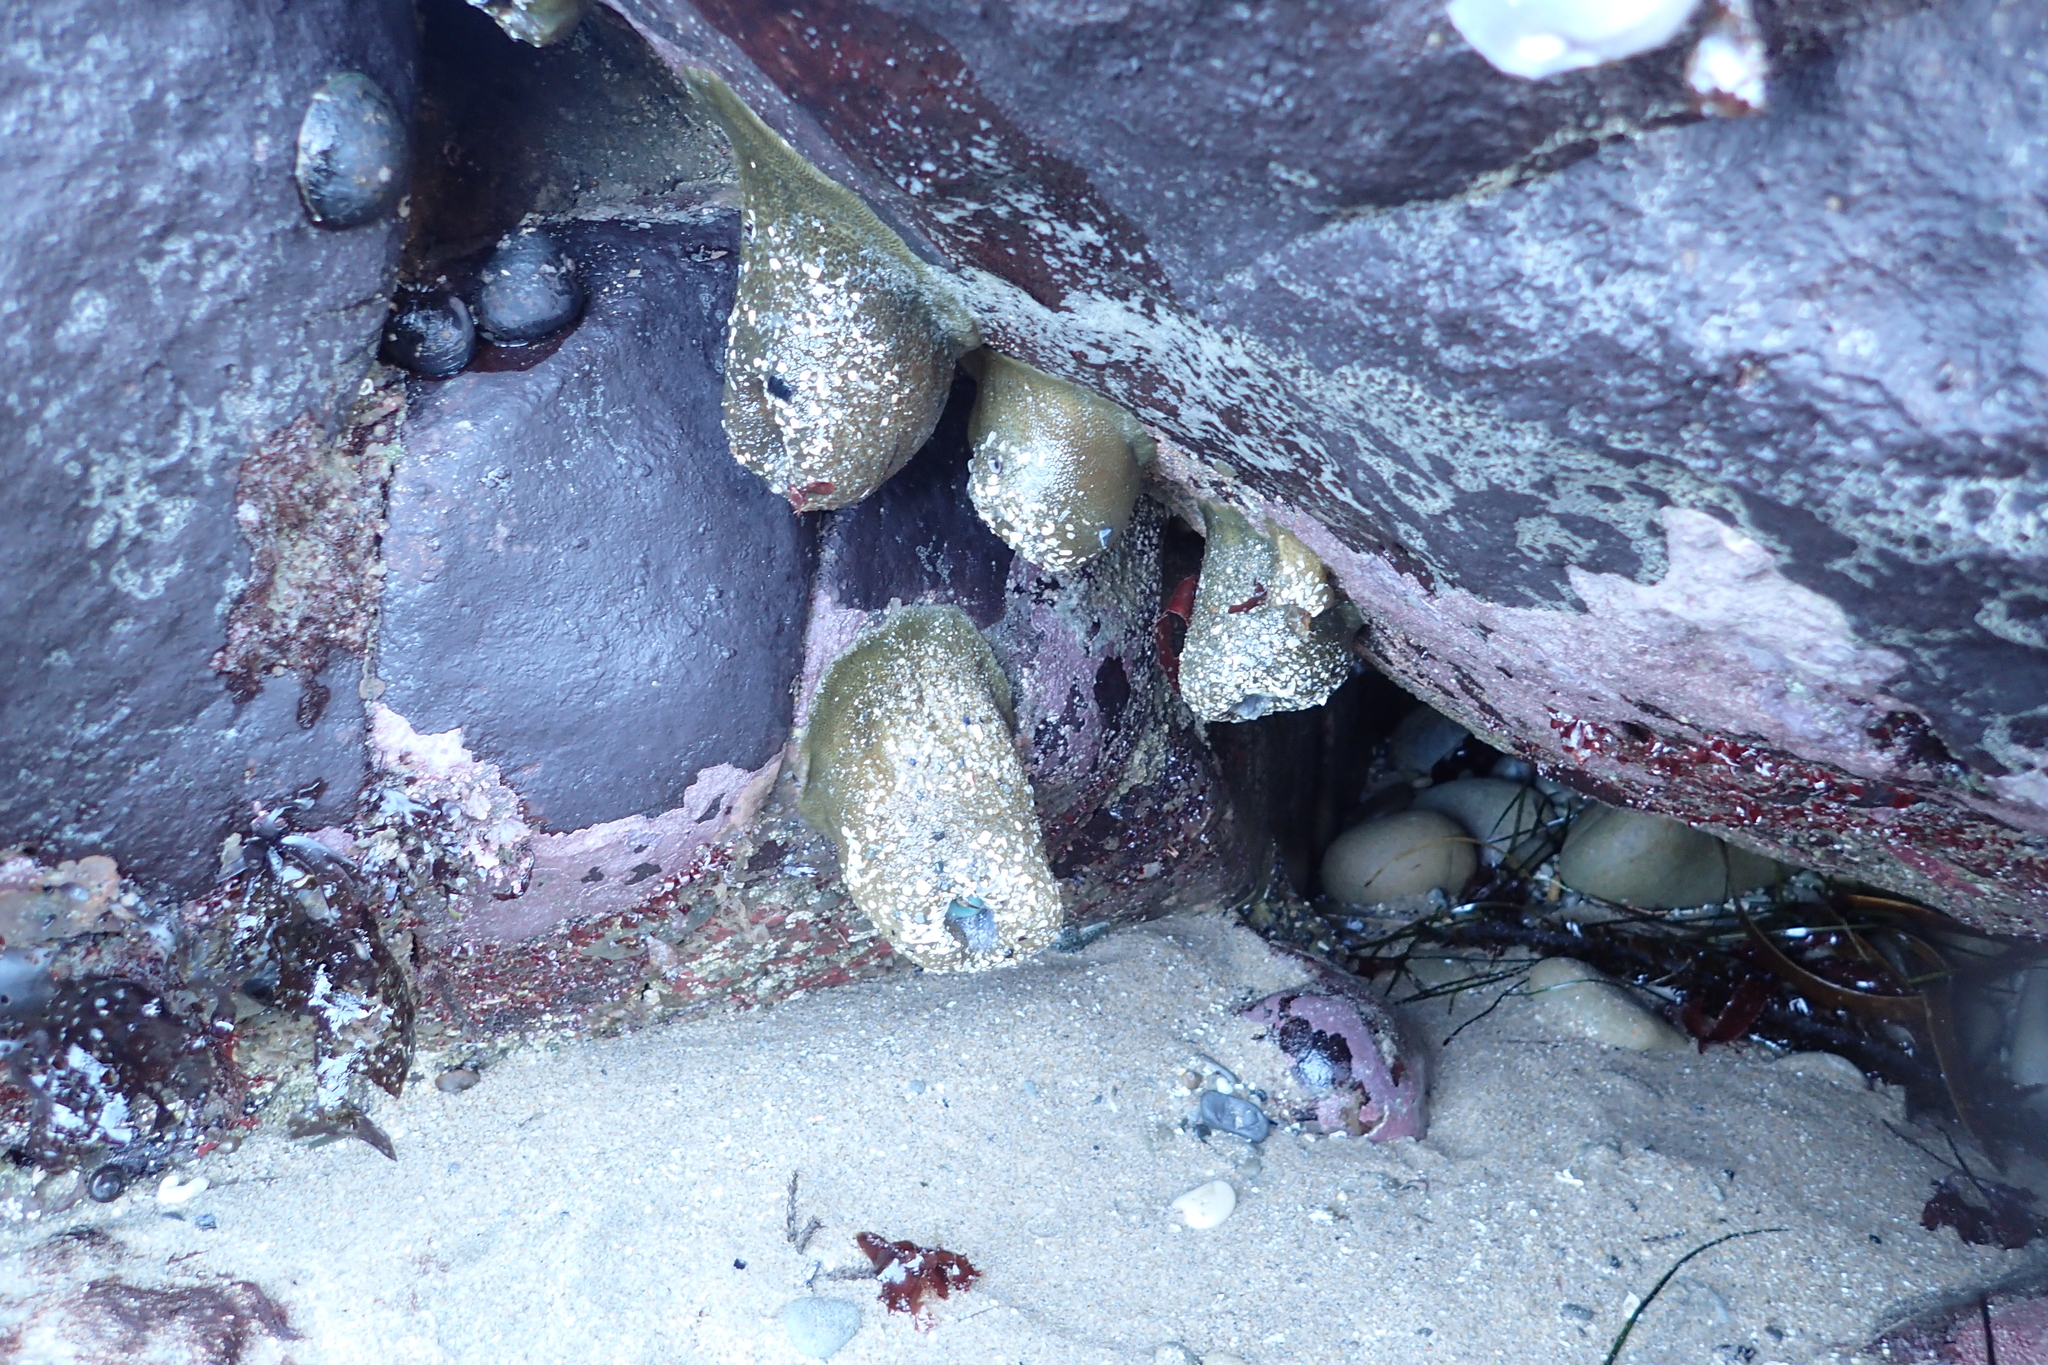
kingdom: Animalia
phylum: Cnidaria
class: Anthozoa
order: Actiniaria
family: Actiniidae
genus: Anthopleura
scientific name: Anthopleura xanthogrammica
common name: Giant green anemone
